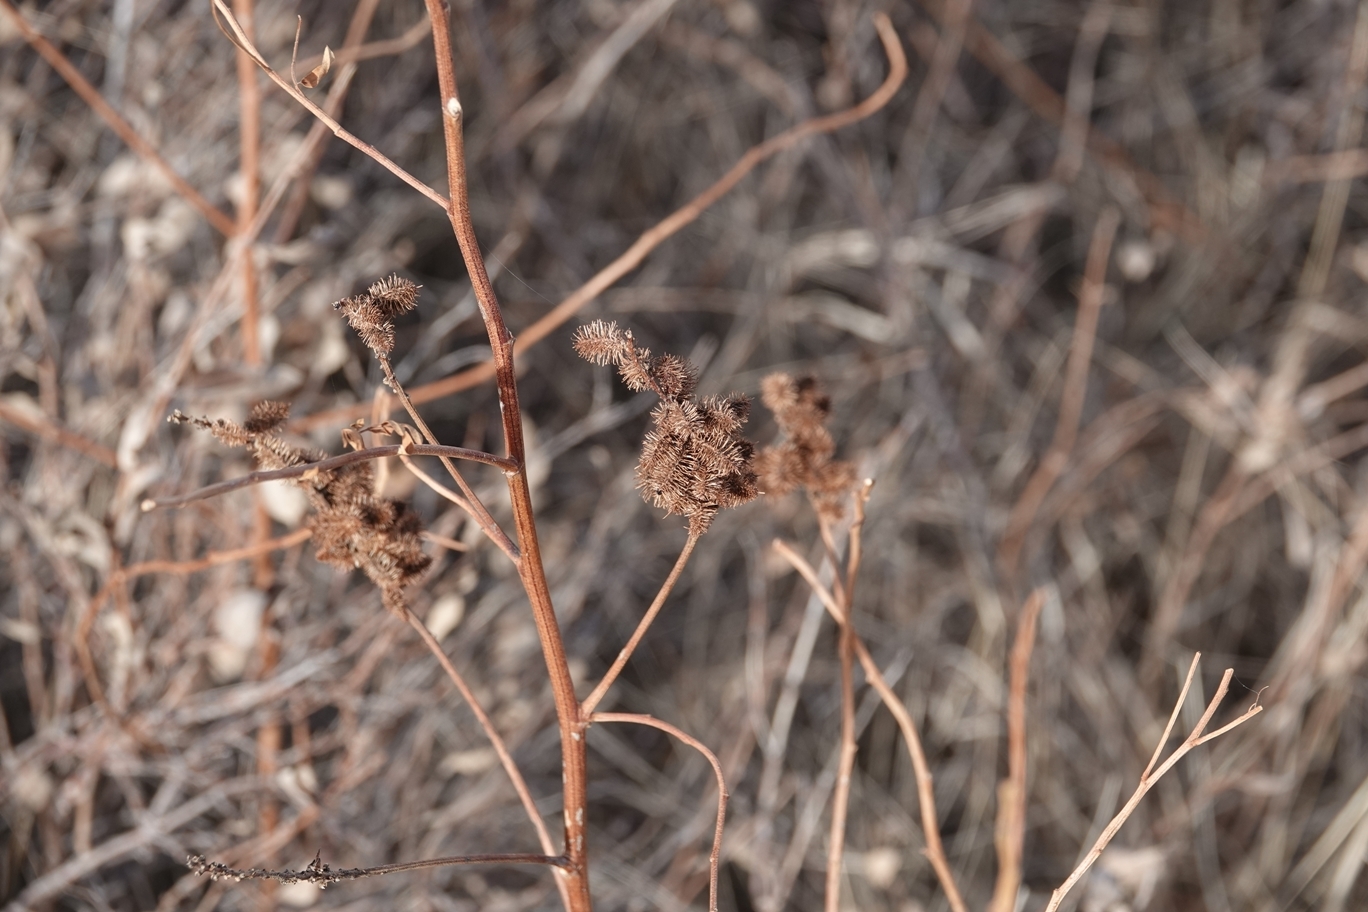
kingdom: Plantae
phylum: Tracheophyta
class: Magnoliopsida
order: Fabales
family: Fabaceae
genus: Glycyrrhiza
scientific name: Glycyrrhiza lepidota
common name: American liquorice
